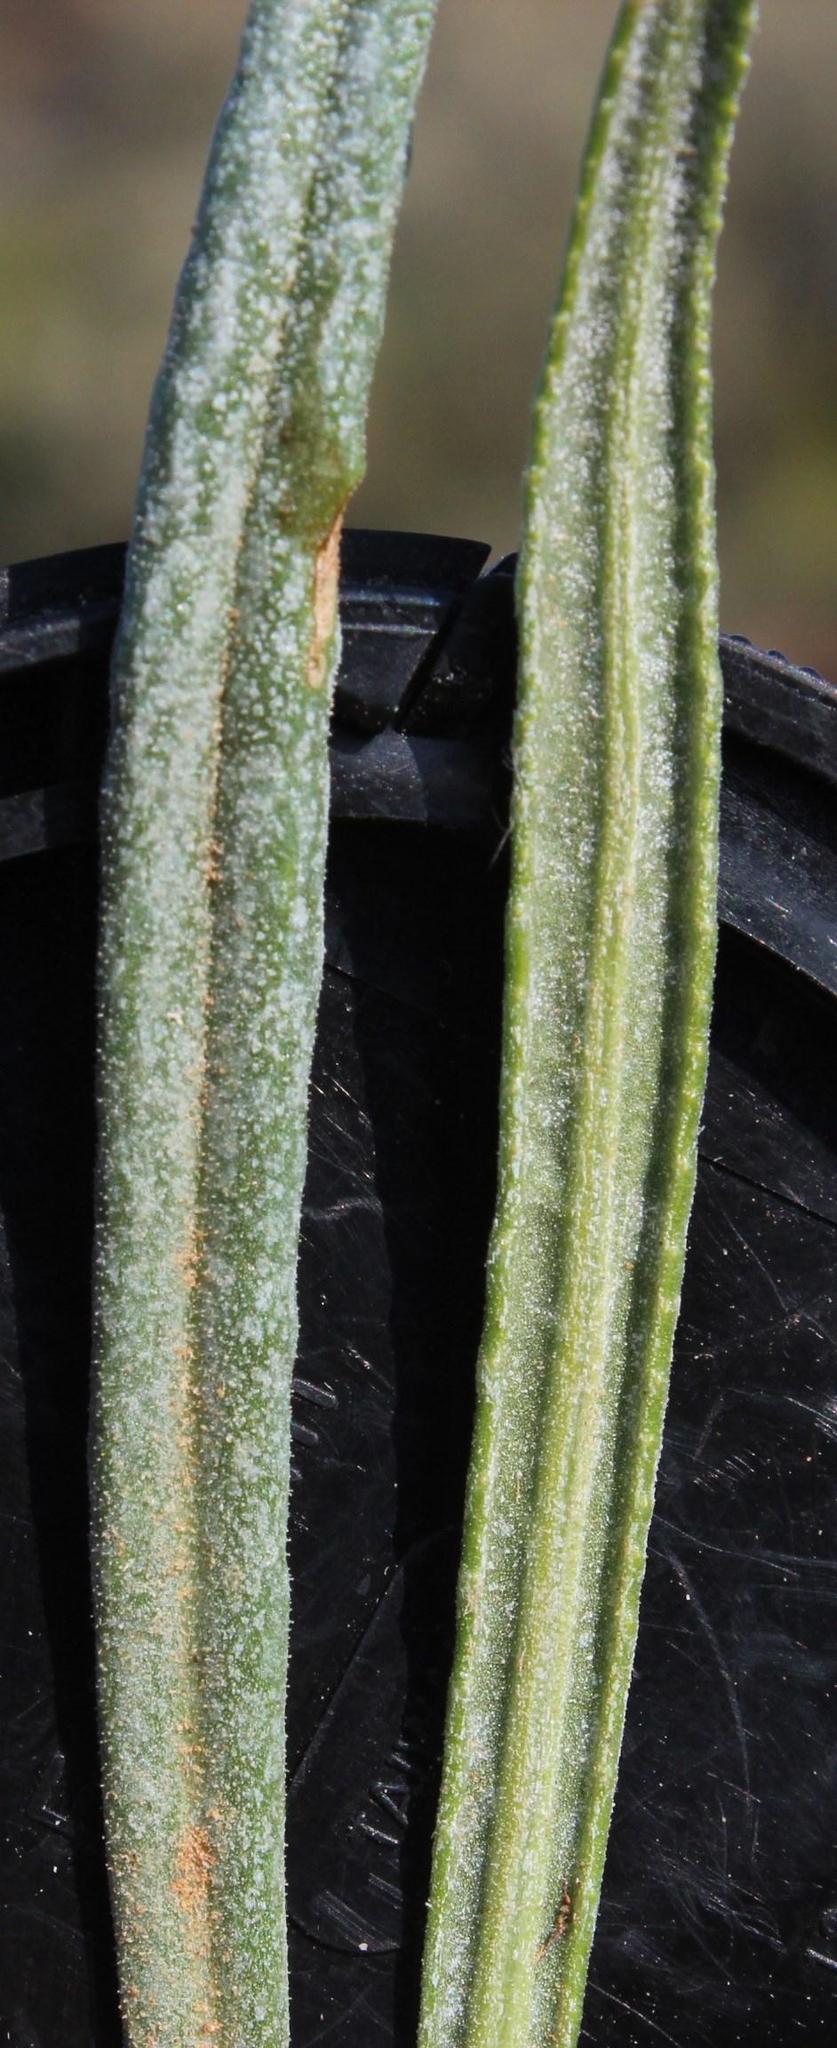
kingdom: Plantae
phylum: Tracheophyta
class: Magnoliopsida
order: Asterales
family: Asteraceae
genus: Senecio
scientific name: Senecio asperulus
